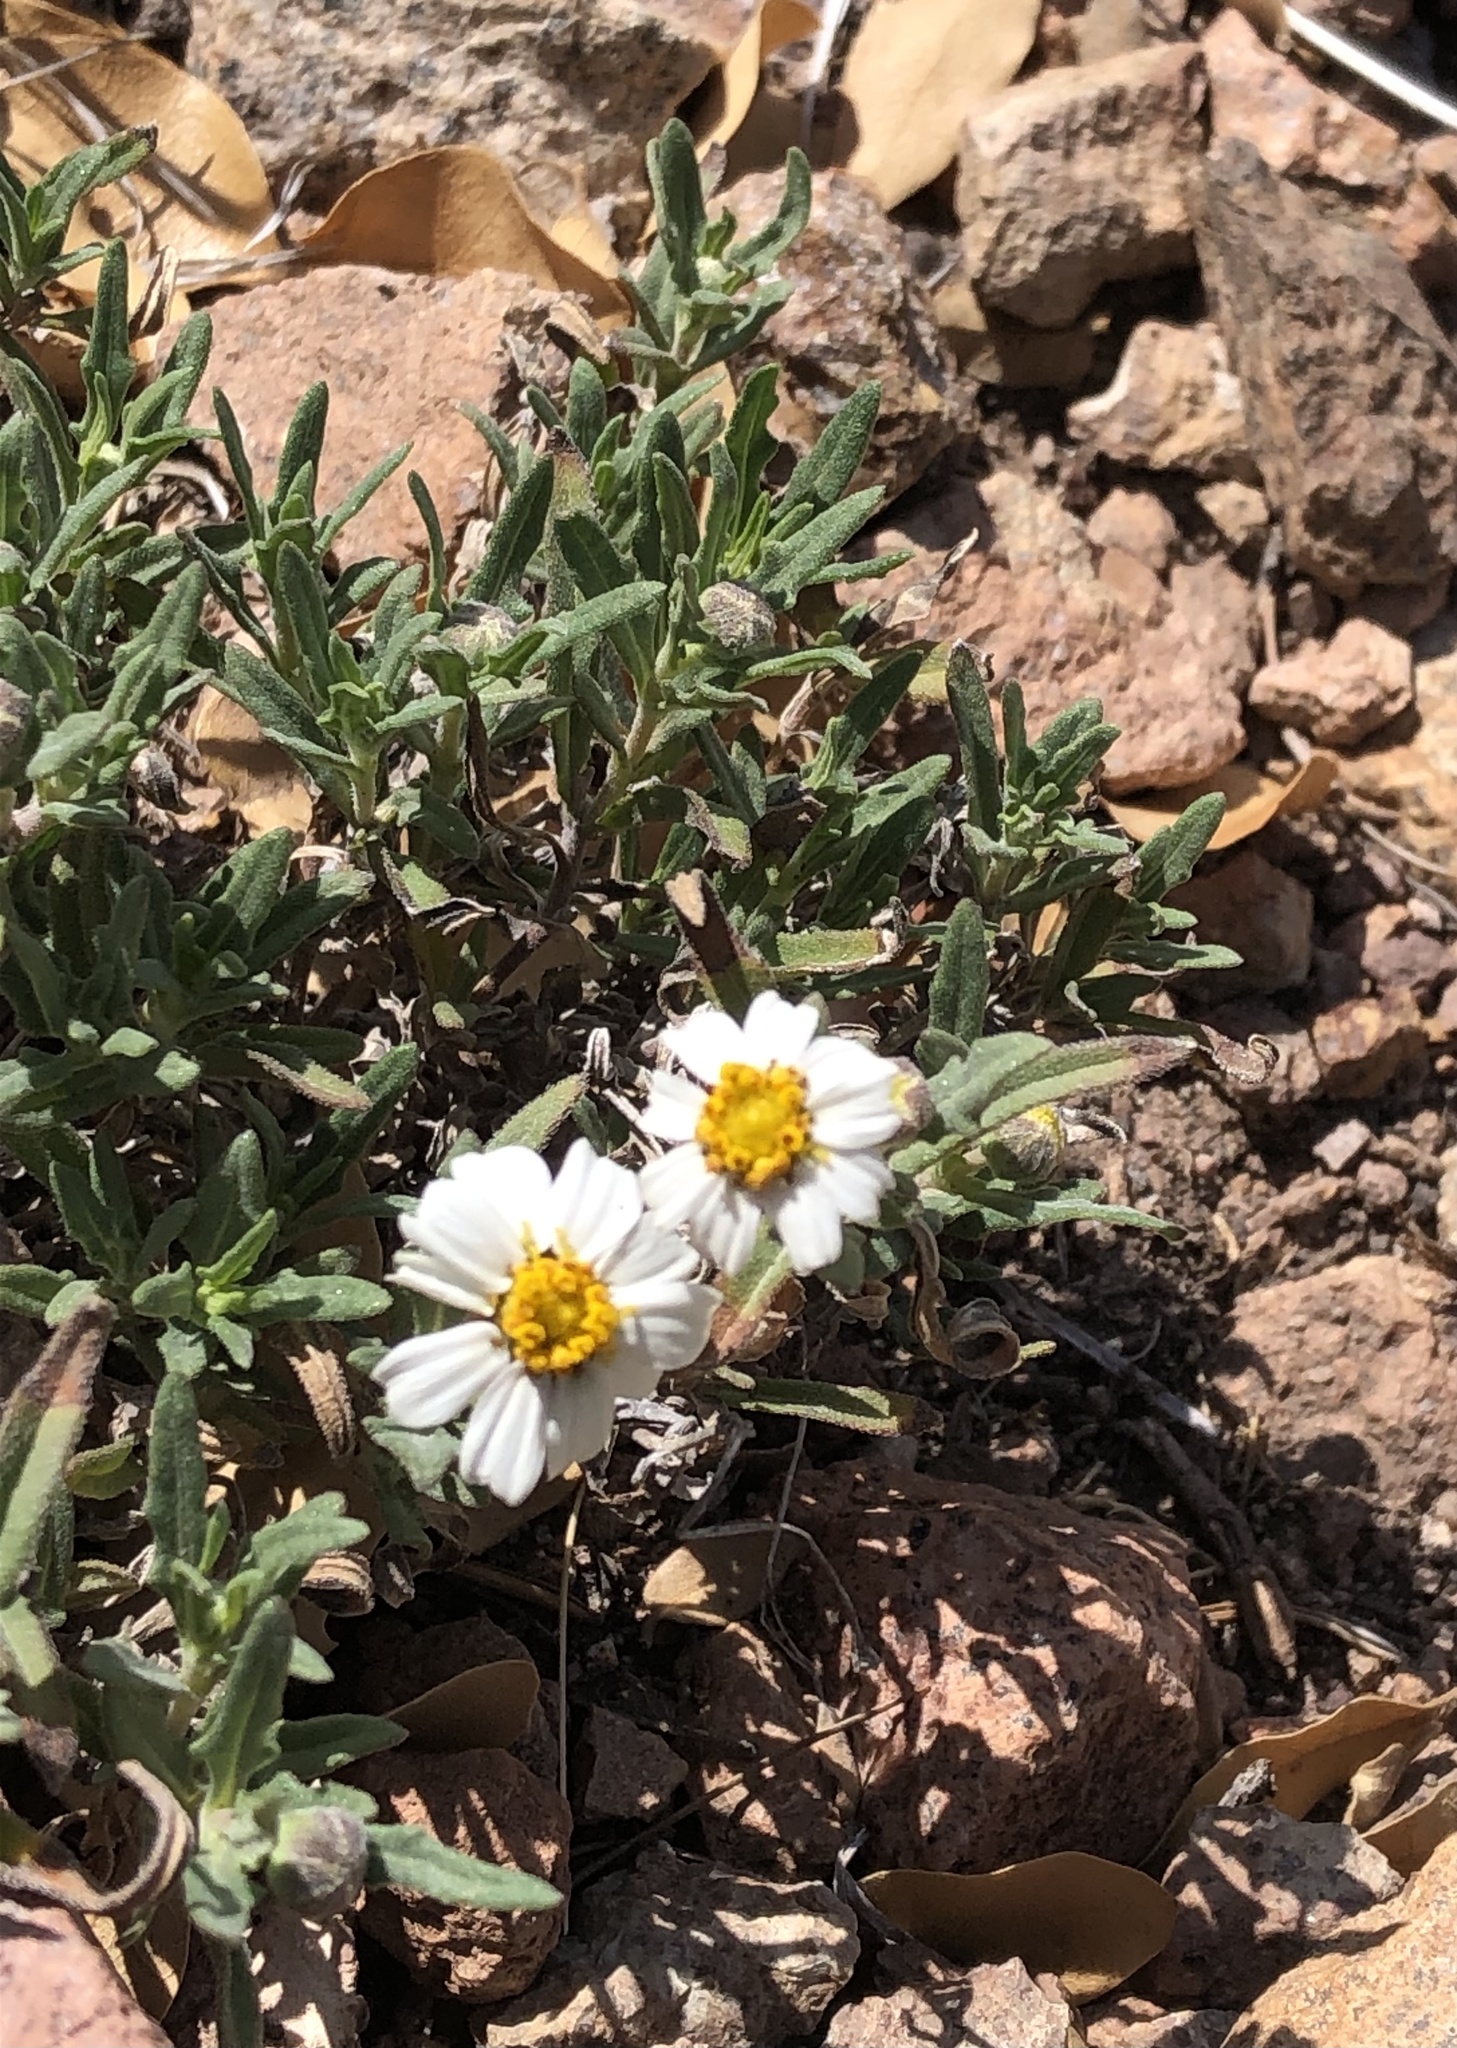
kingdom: Plantae
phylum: Tracheophyta
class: Magnoliopsida
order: Asterales
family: Asteraceae
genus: Melampodium
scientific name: Melampodium leucanthum
